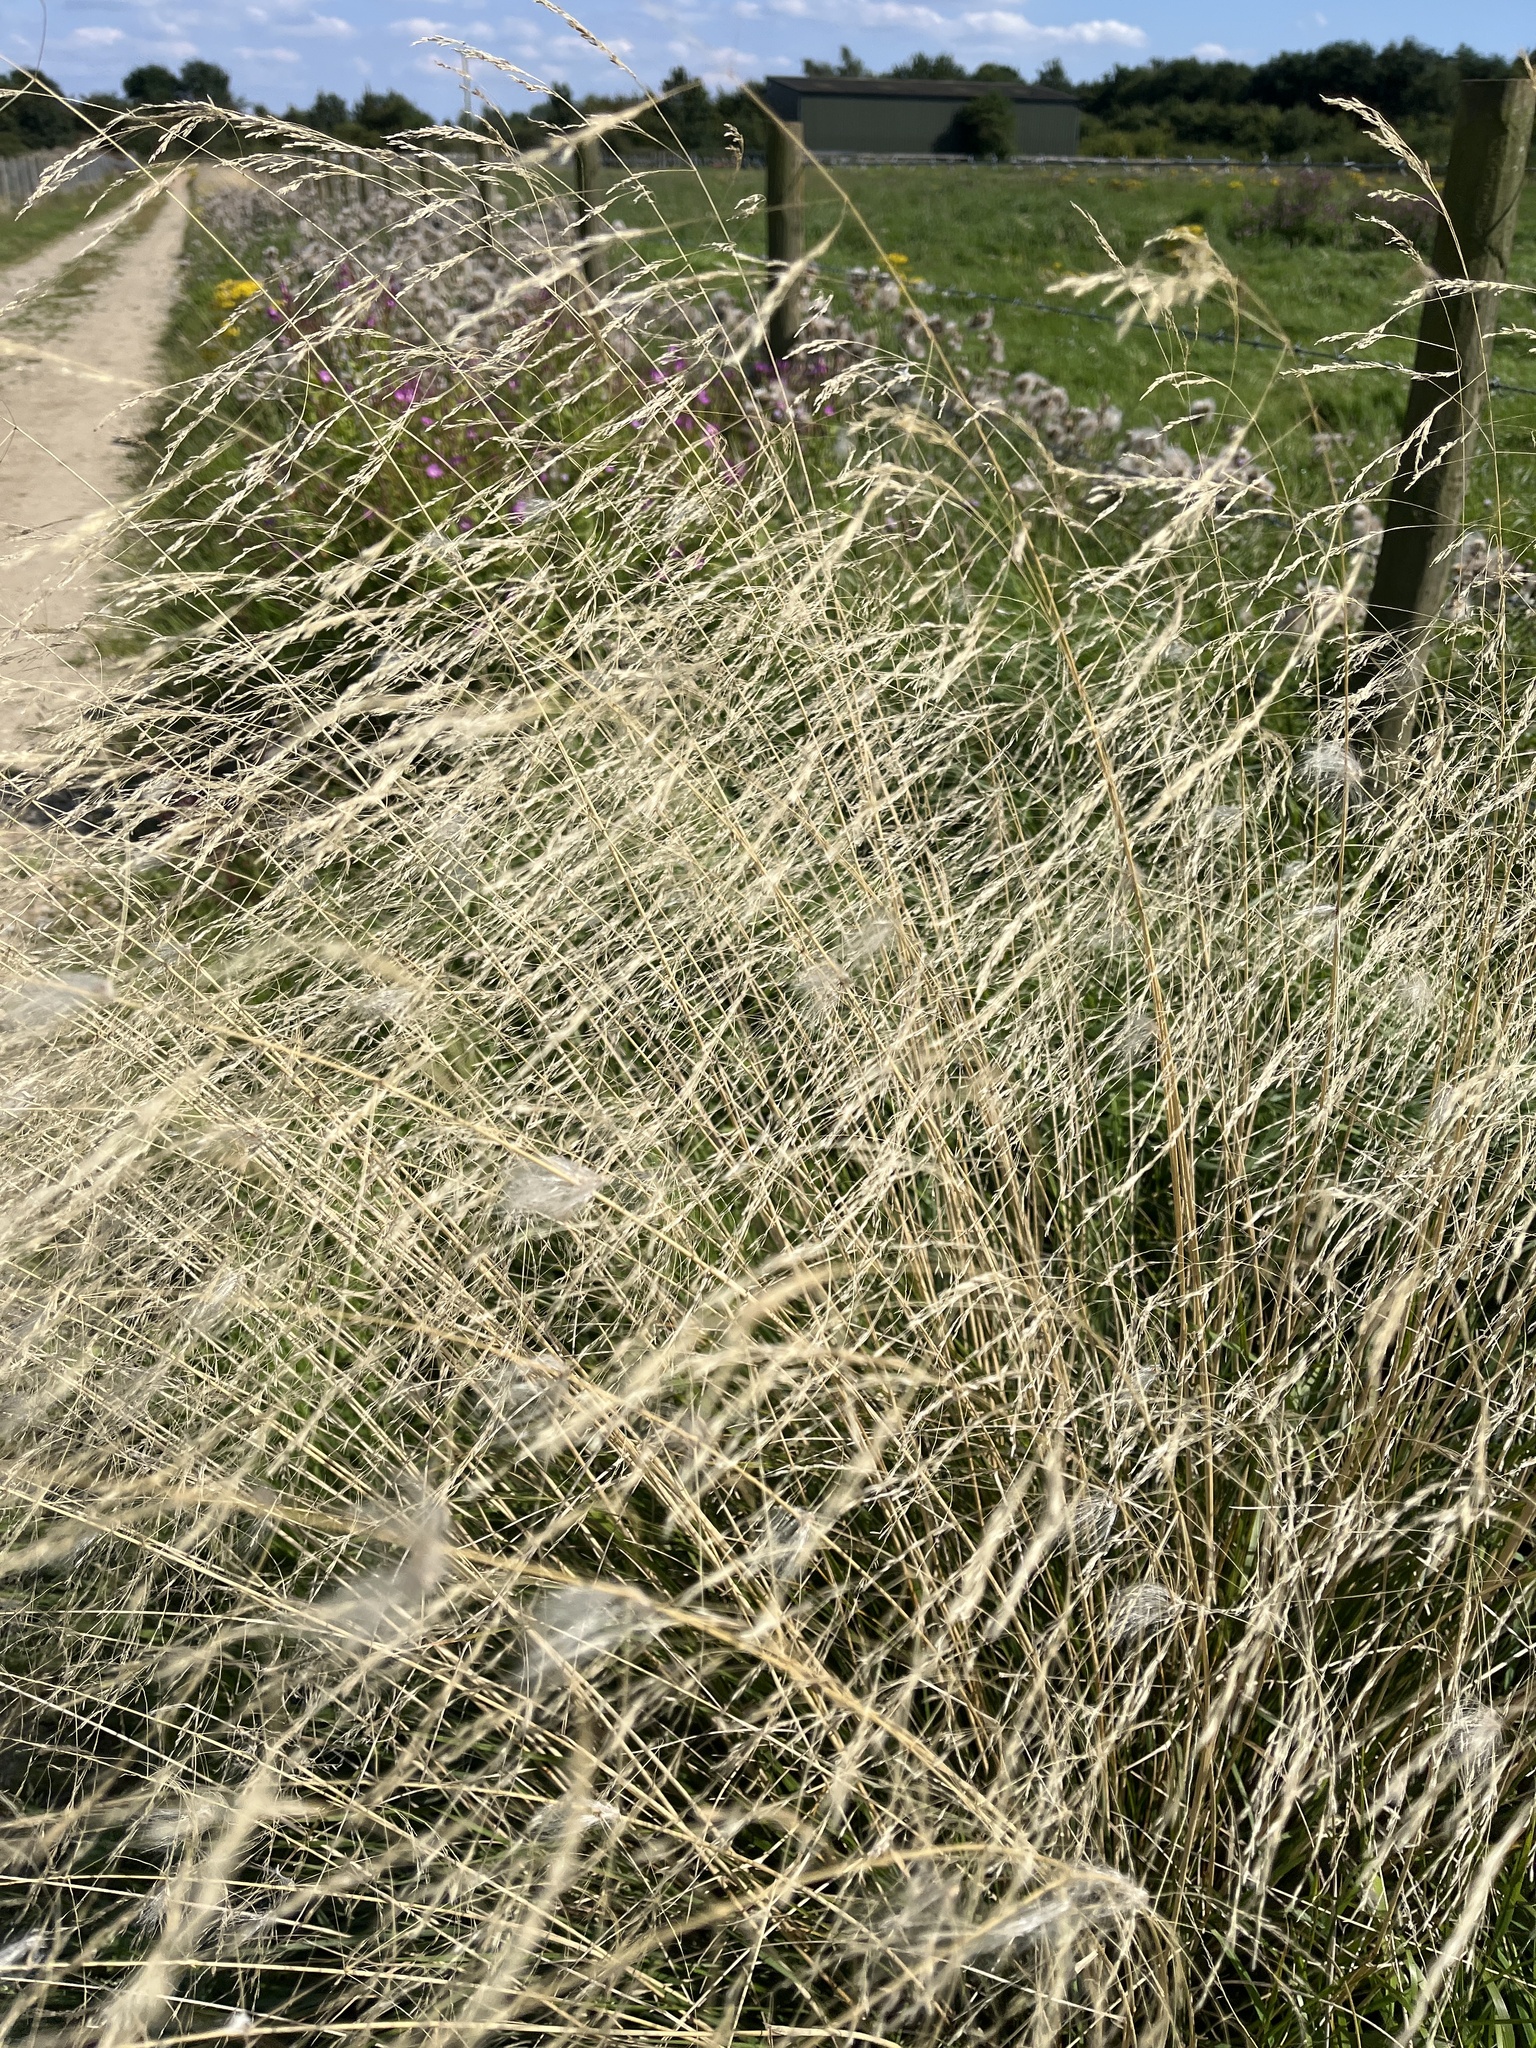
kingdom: Plantae
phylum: Tracheophyta
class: Liliopsida
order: Poales
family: Poaceae
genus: Deschampsia
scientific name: Deschampsia cespitosa
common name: Tufted hair-grass
